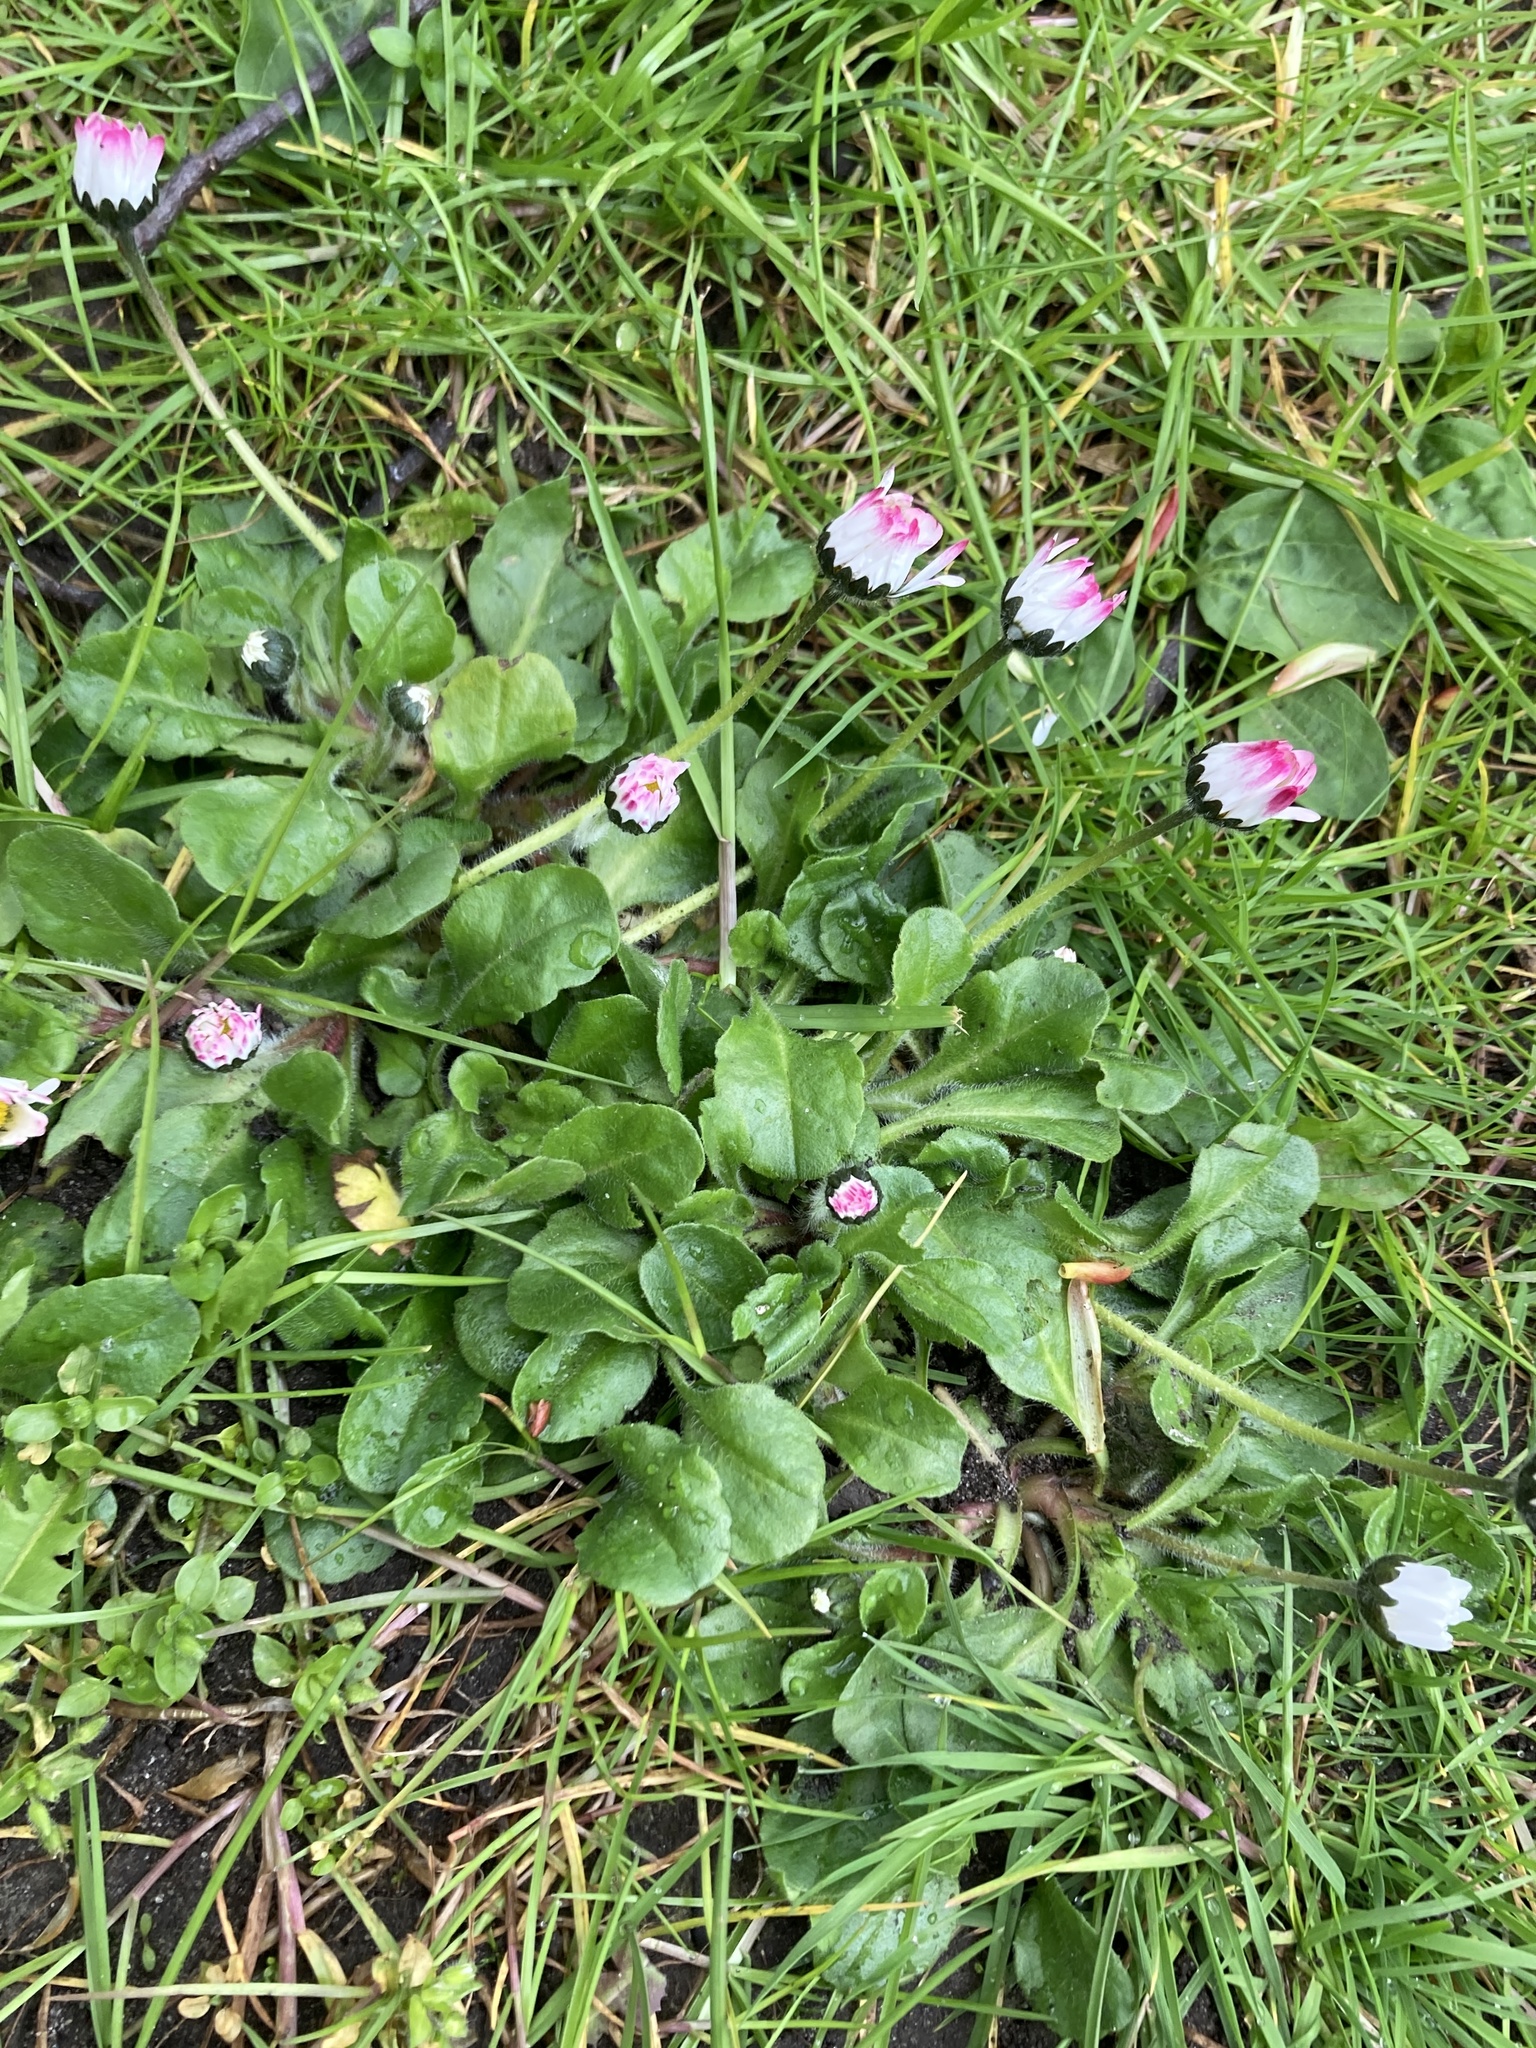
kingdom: Plantae
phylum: Tracheophyta
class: Magnoliopsida
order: Asterales
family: Asteraceae
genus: Bellis
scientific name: Bellis perennis
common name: Lawndaisy
